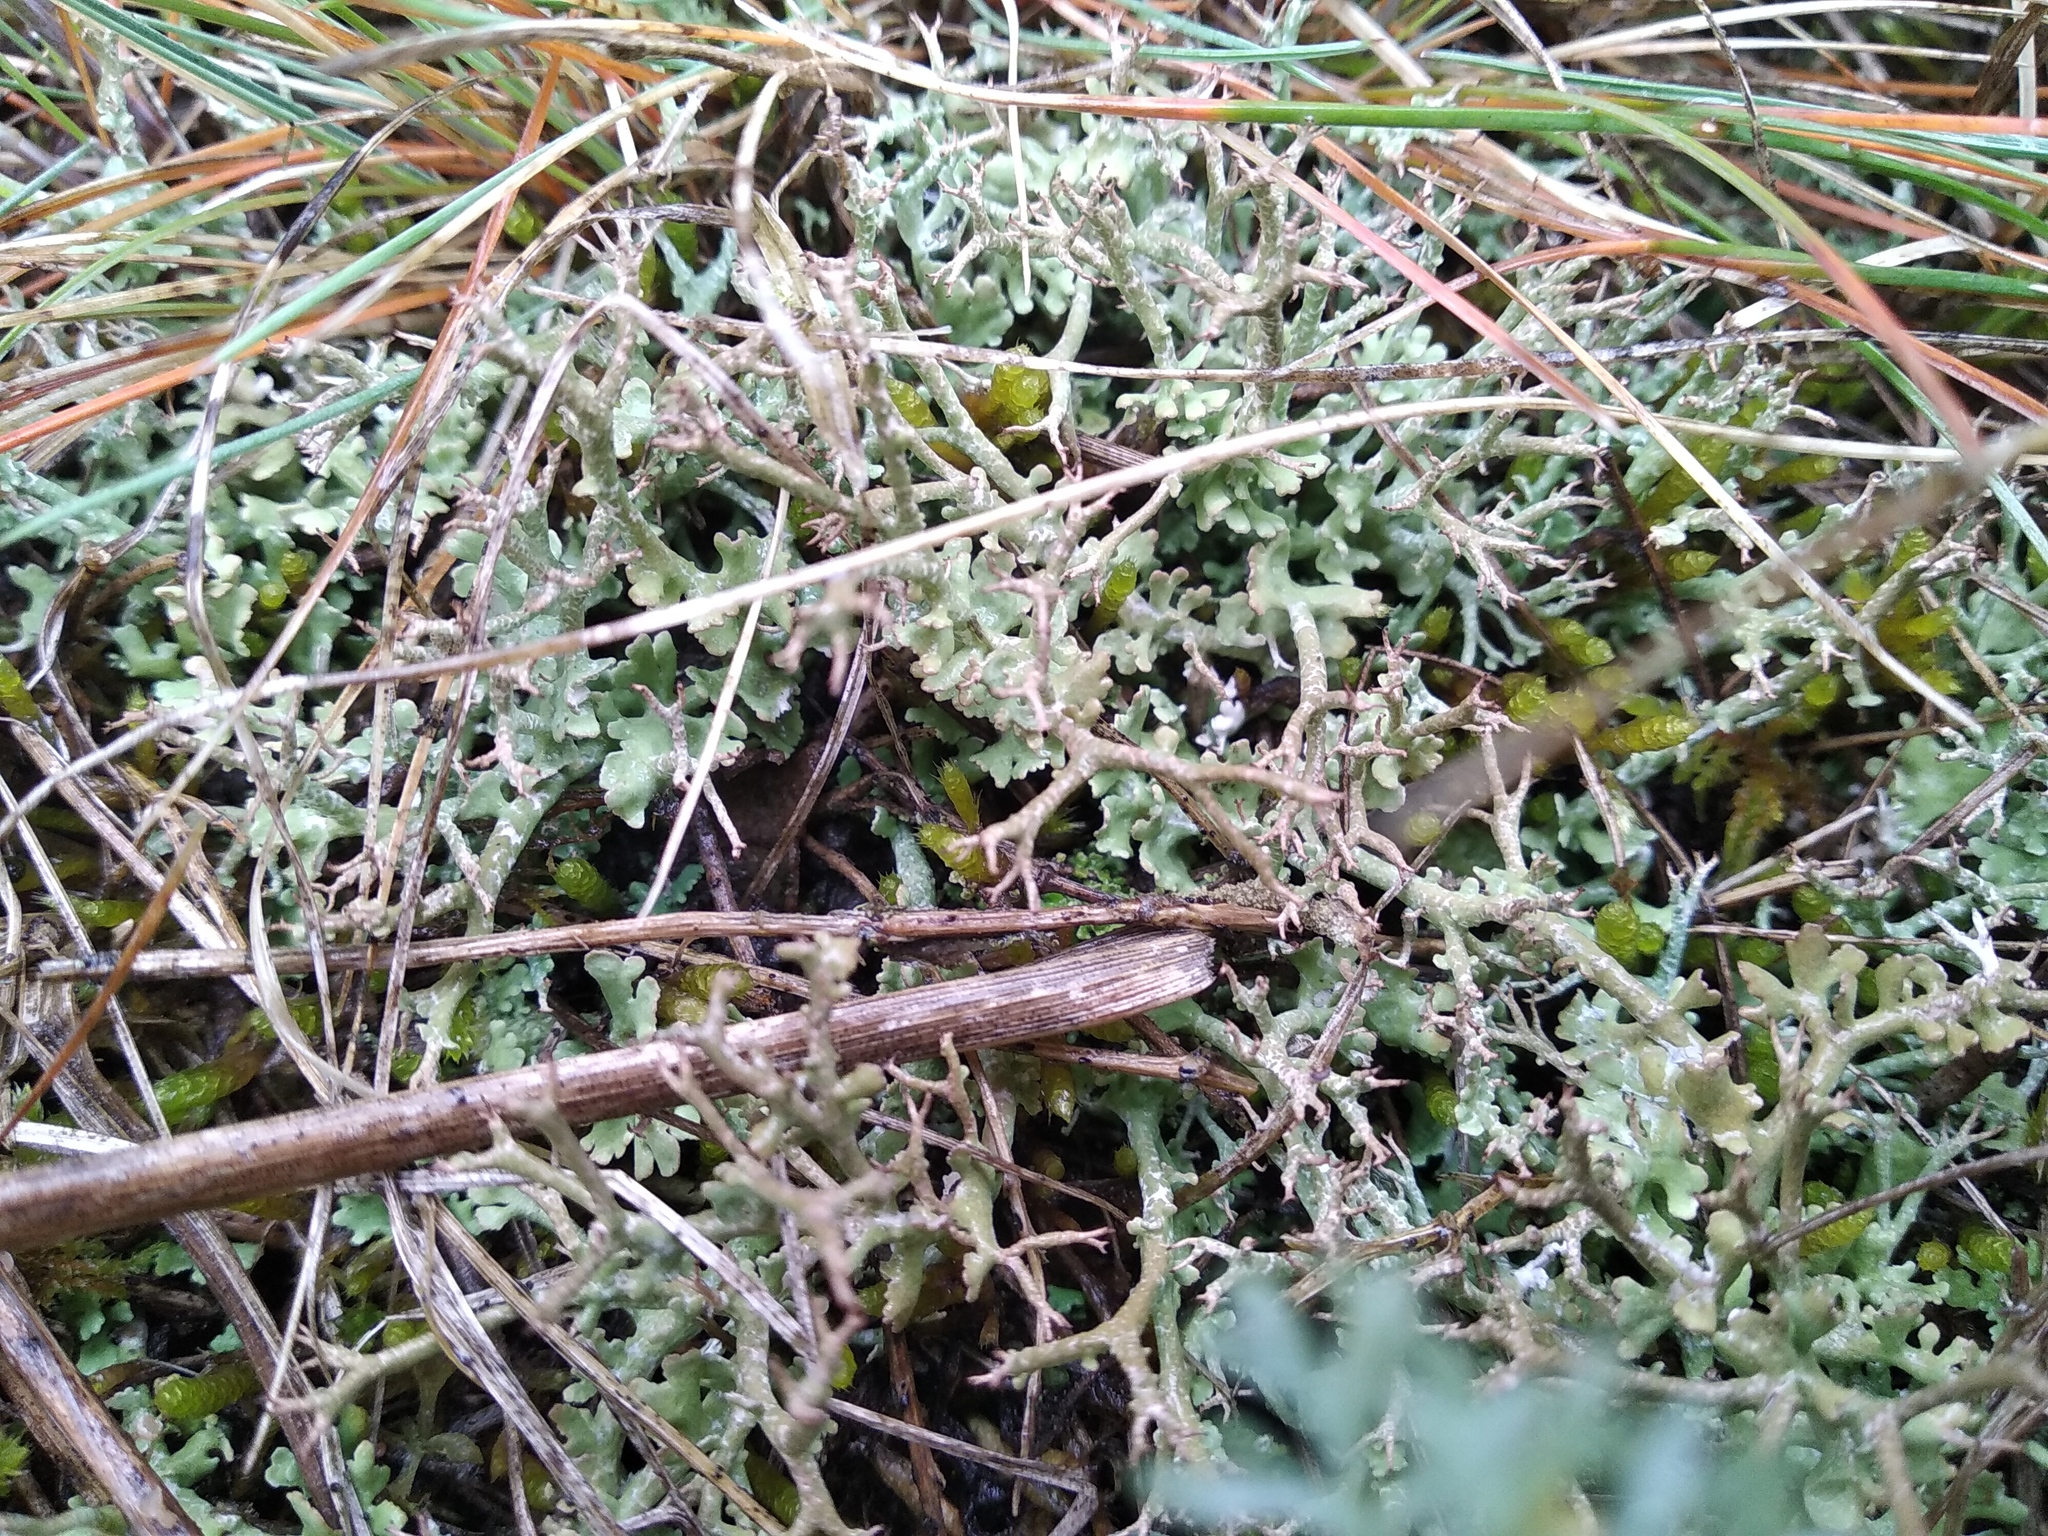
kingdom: Fungi
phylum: Ascomycota
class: Lecanoromycetes
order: Lecanorales
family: Cladoniaceae
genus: Cladonia
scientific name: Cladonia rangiformis
